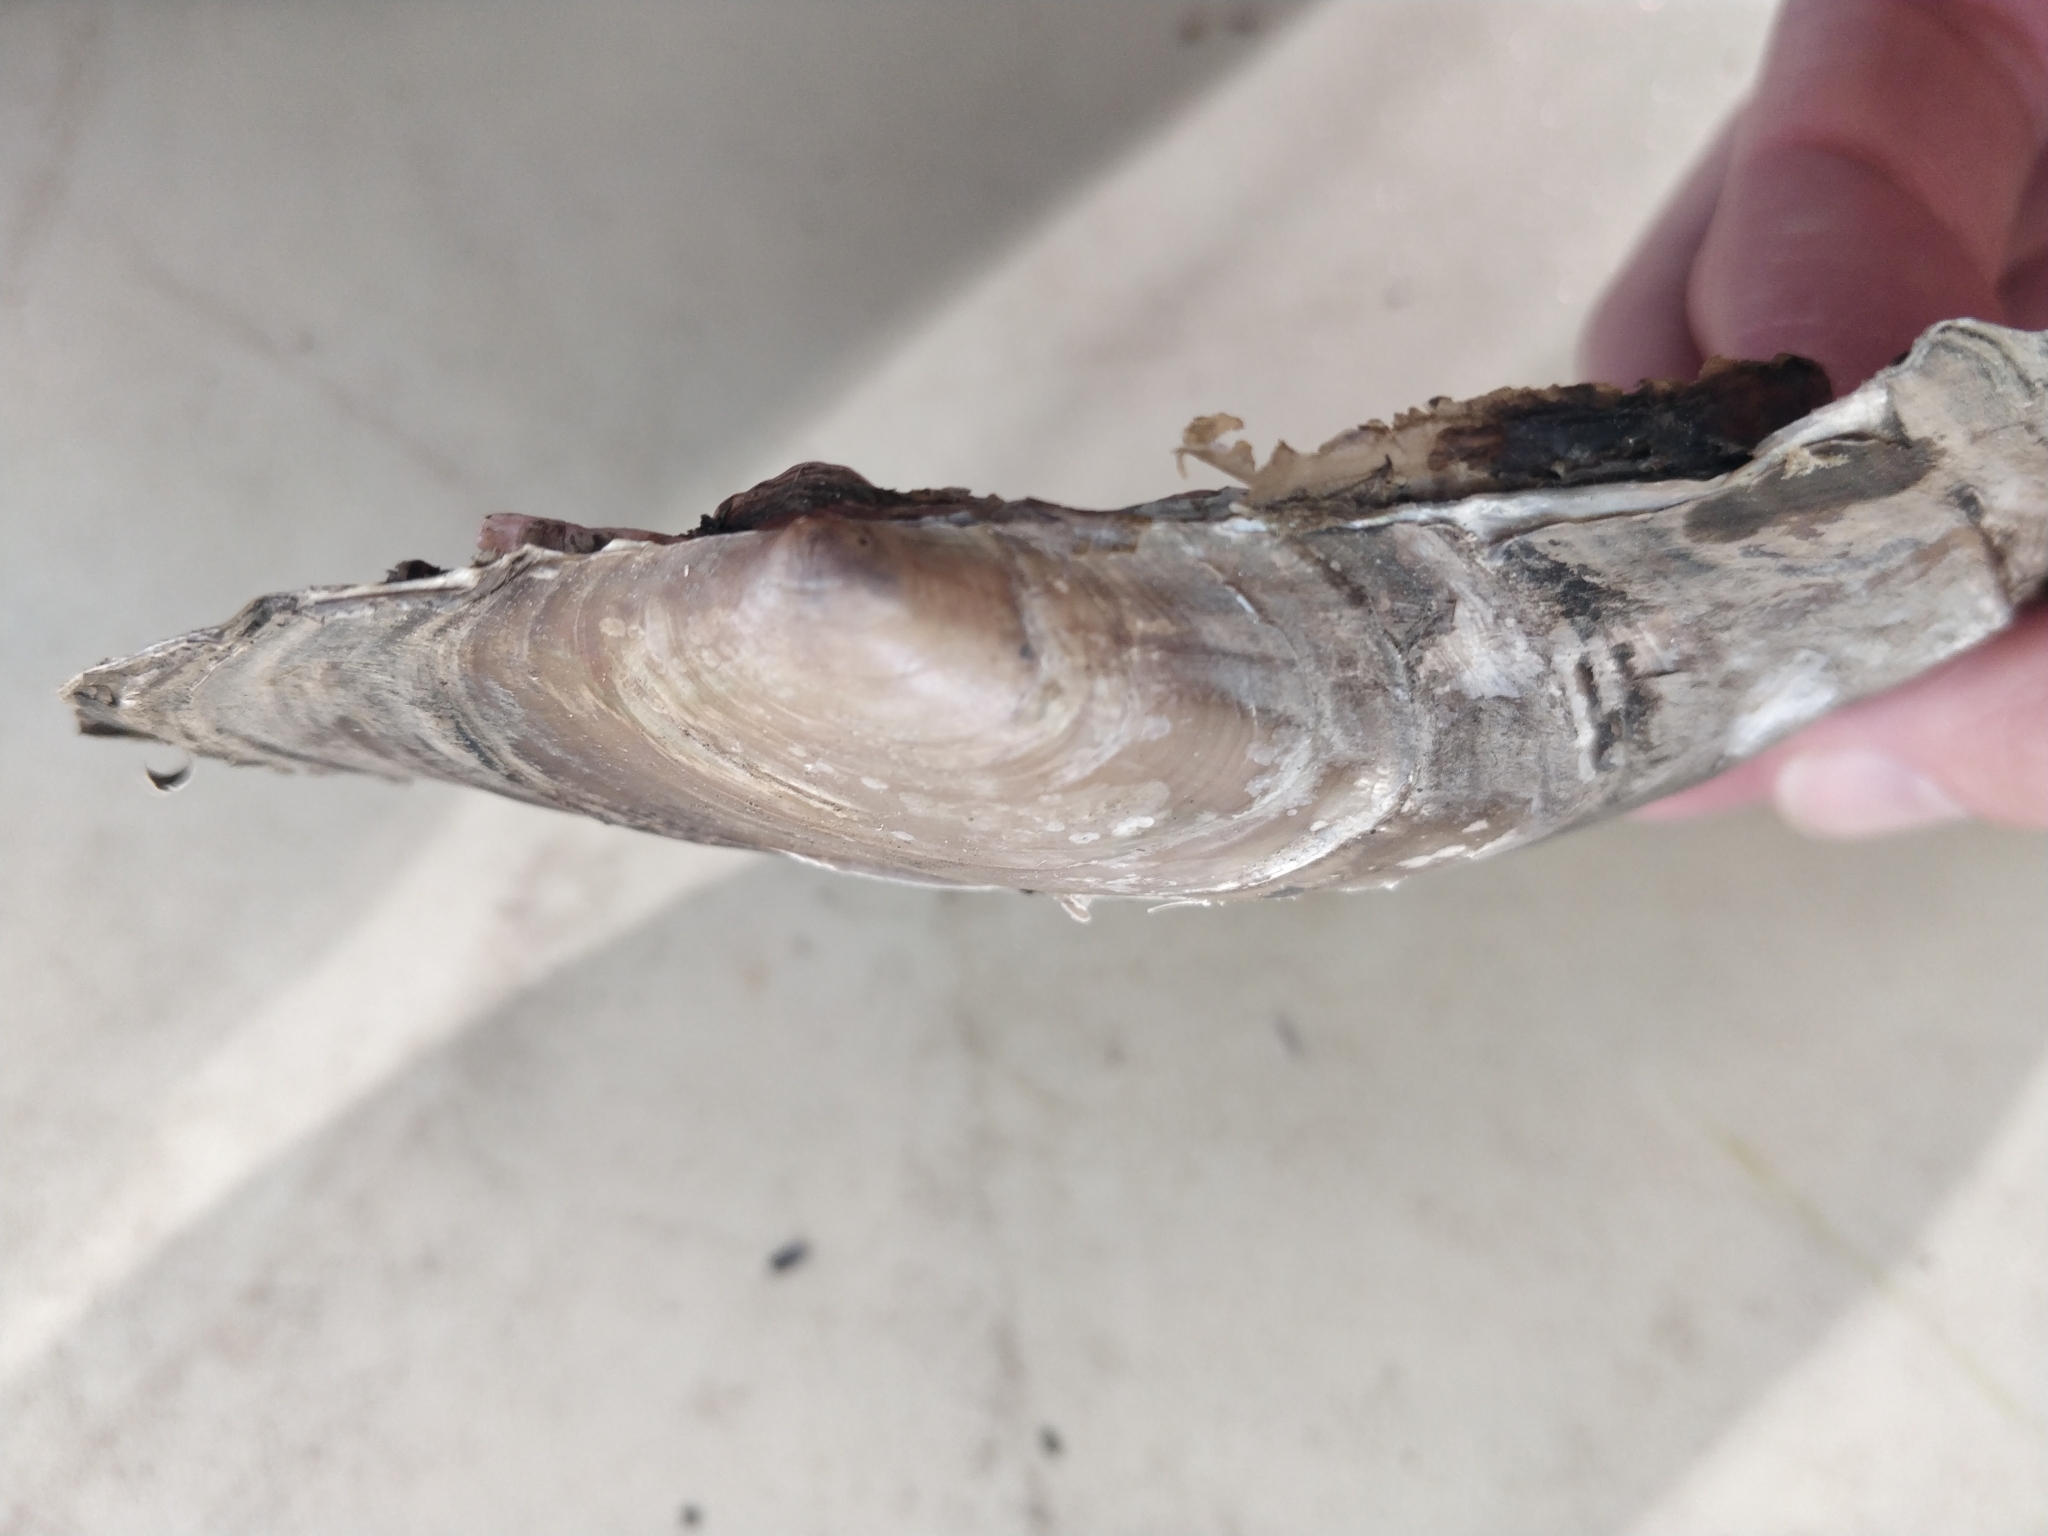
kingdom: Animalia
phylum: Mollusca
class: Bivalvia
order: Unionida
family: Unionidae
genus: Potamilus
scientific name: Potamilus ohiensis
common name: Pink papershell
